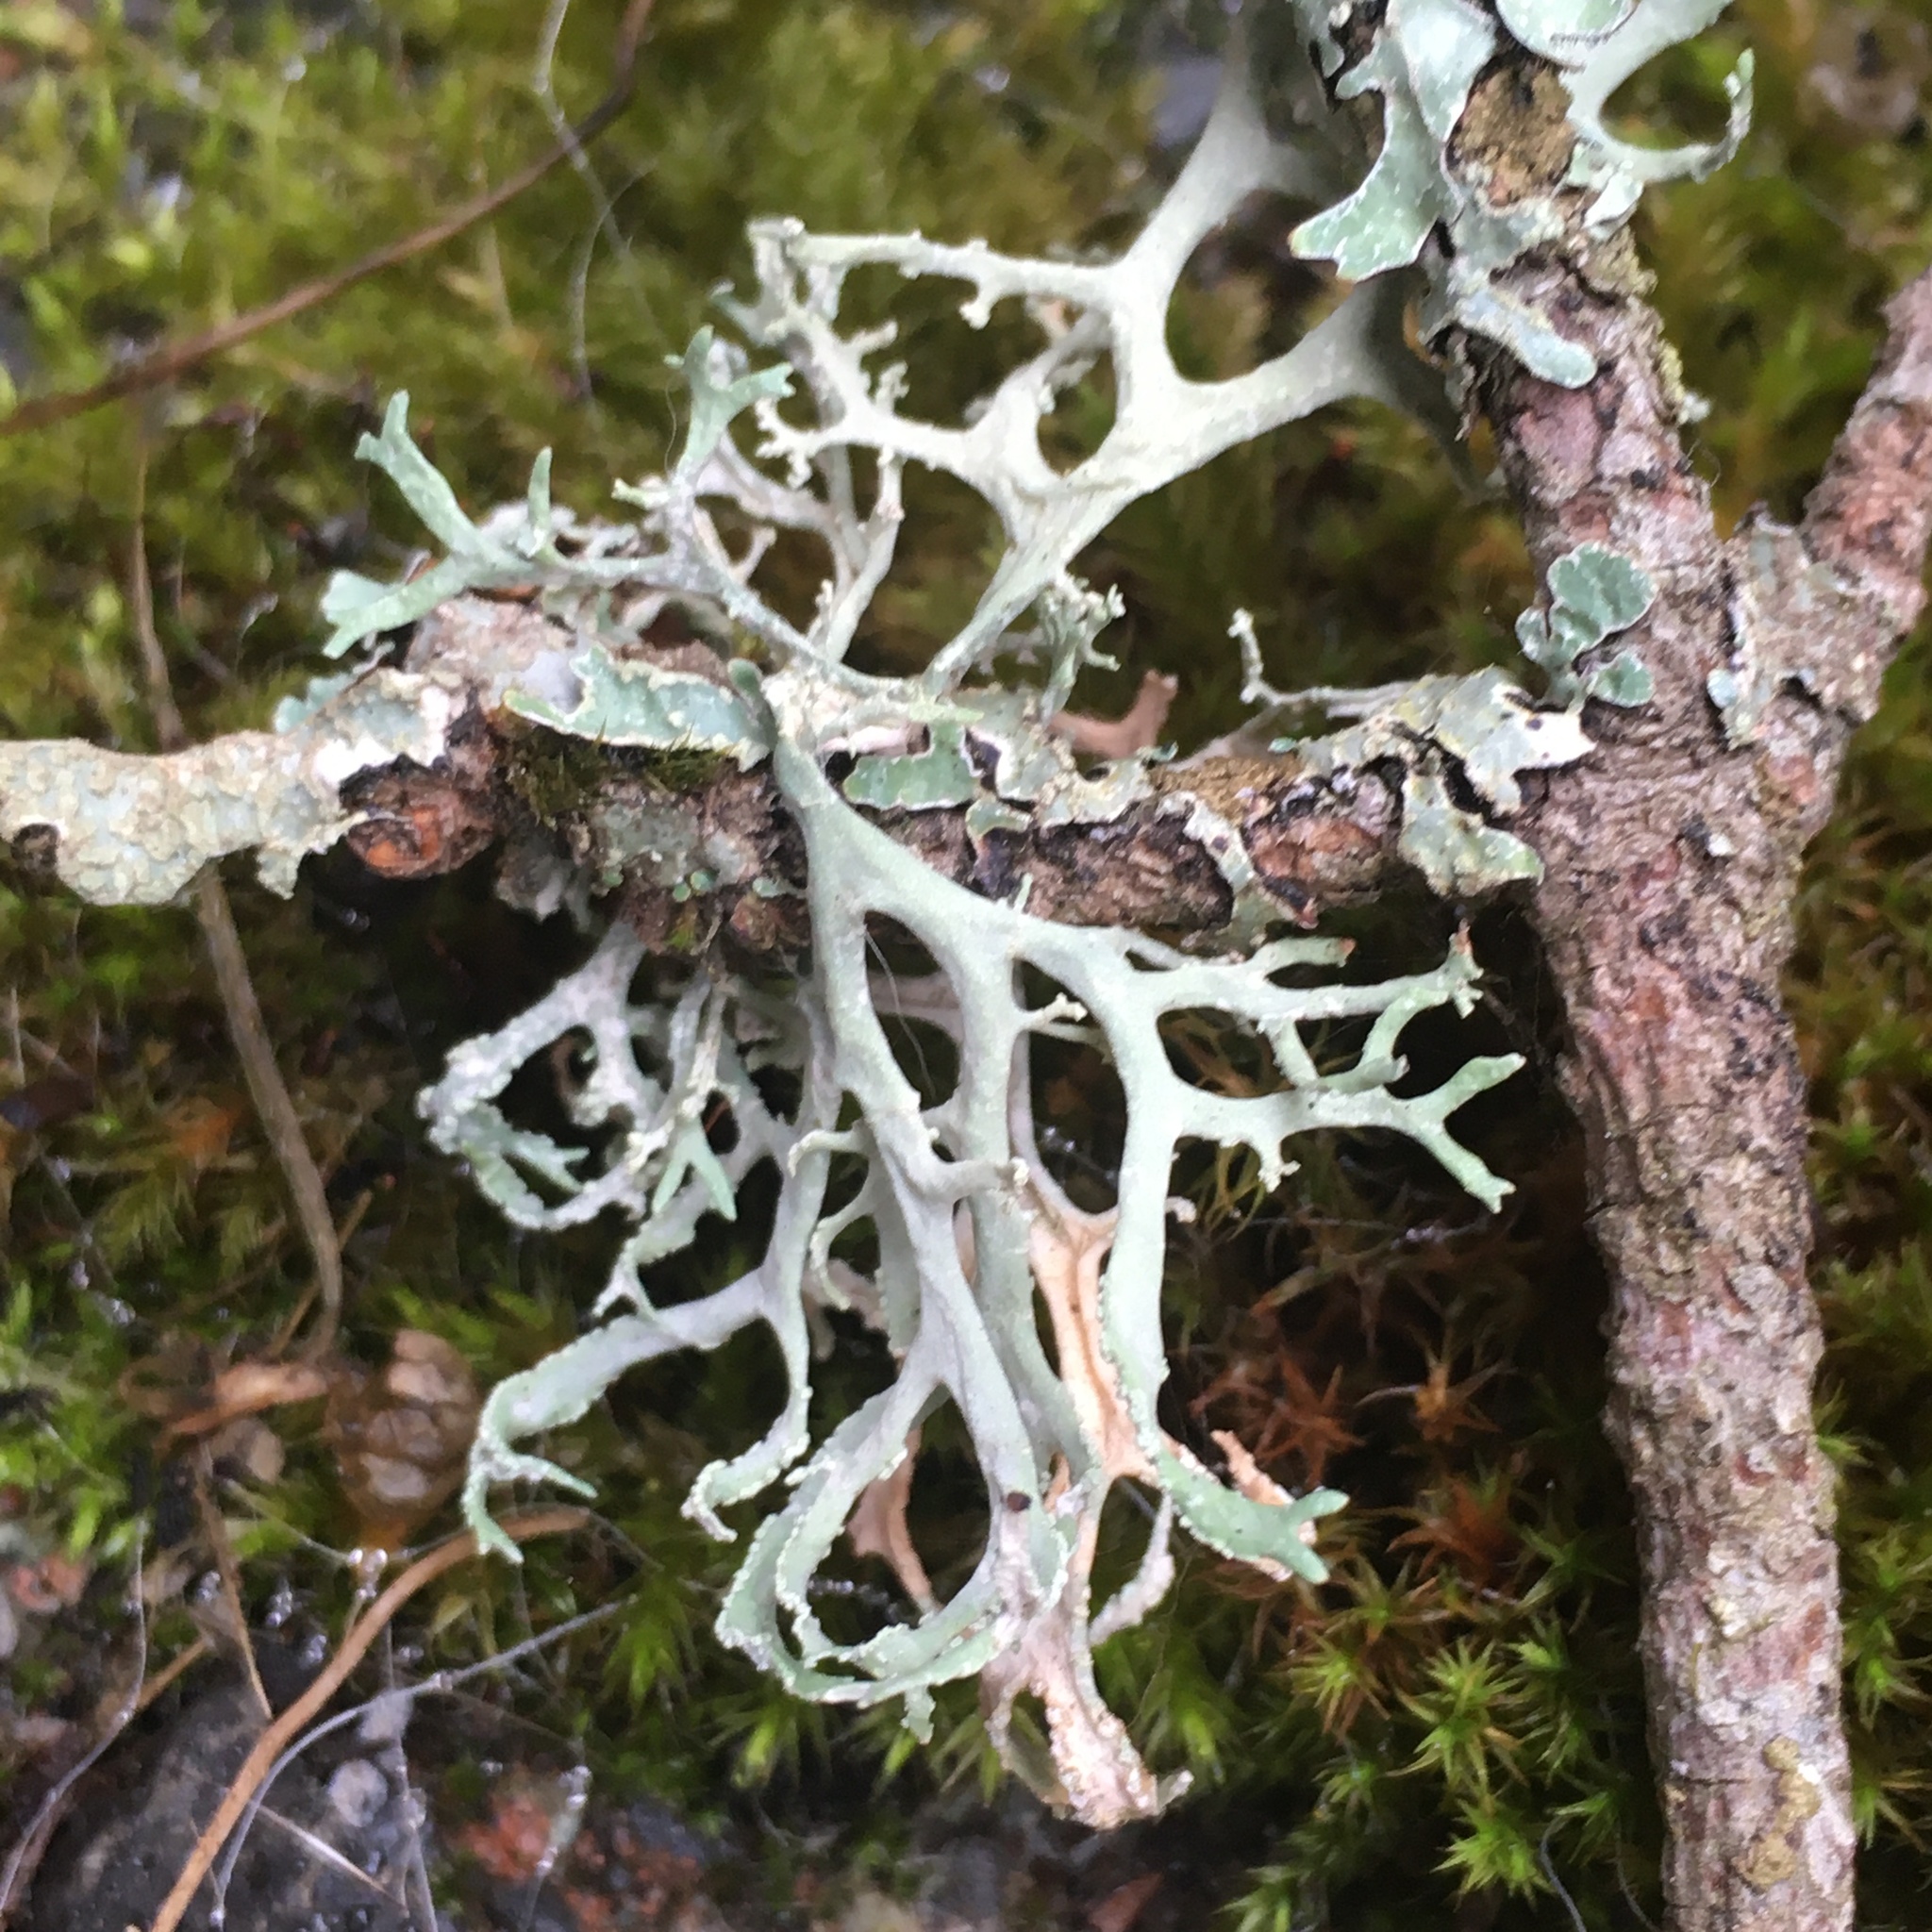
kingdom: Fungi
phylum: Ascomycota
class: Lecanoromycetes
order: Lecanorales
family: Parmeliaceae
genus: Evernia
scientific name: Evernia prunastri
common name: Oak moss
